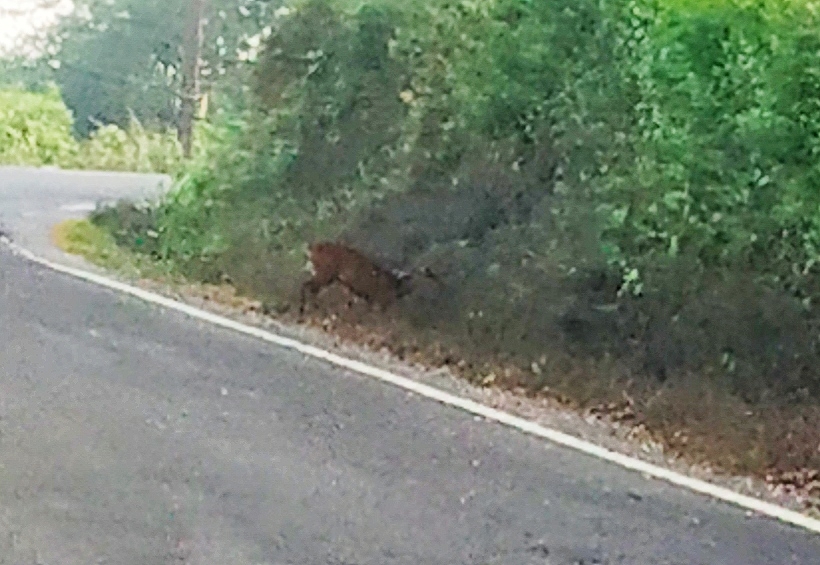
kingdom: Animalia
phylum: Chordata
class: Mammalia
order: Artiodactyla
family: Cervidae
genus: Muntiacus
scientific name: Muntiacus muntjak
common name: Indian muntjac
